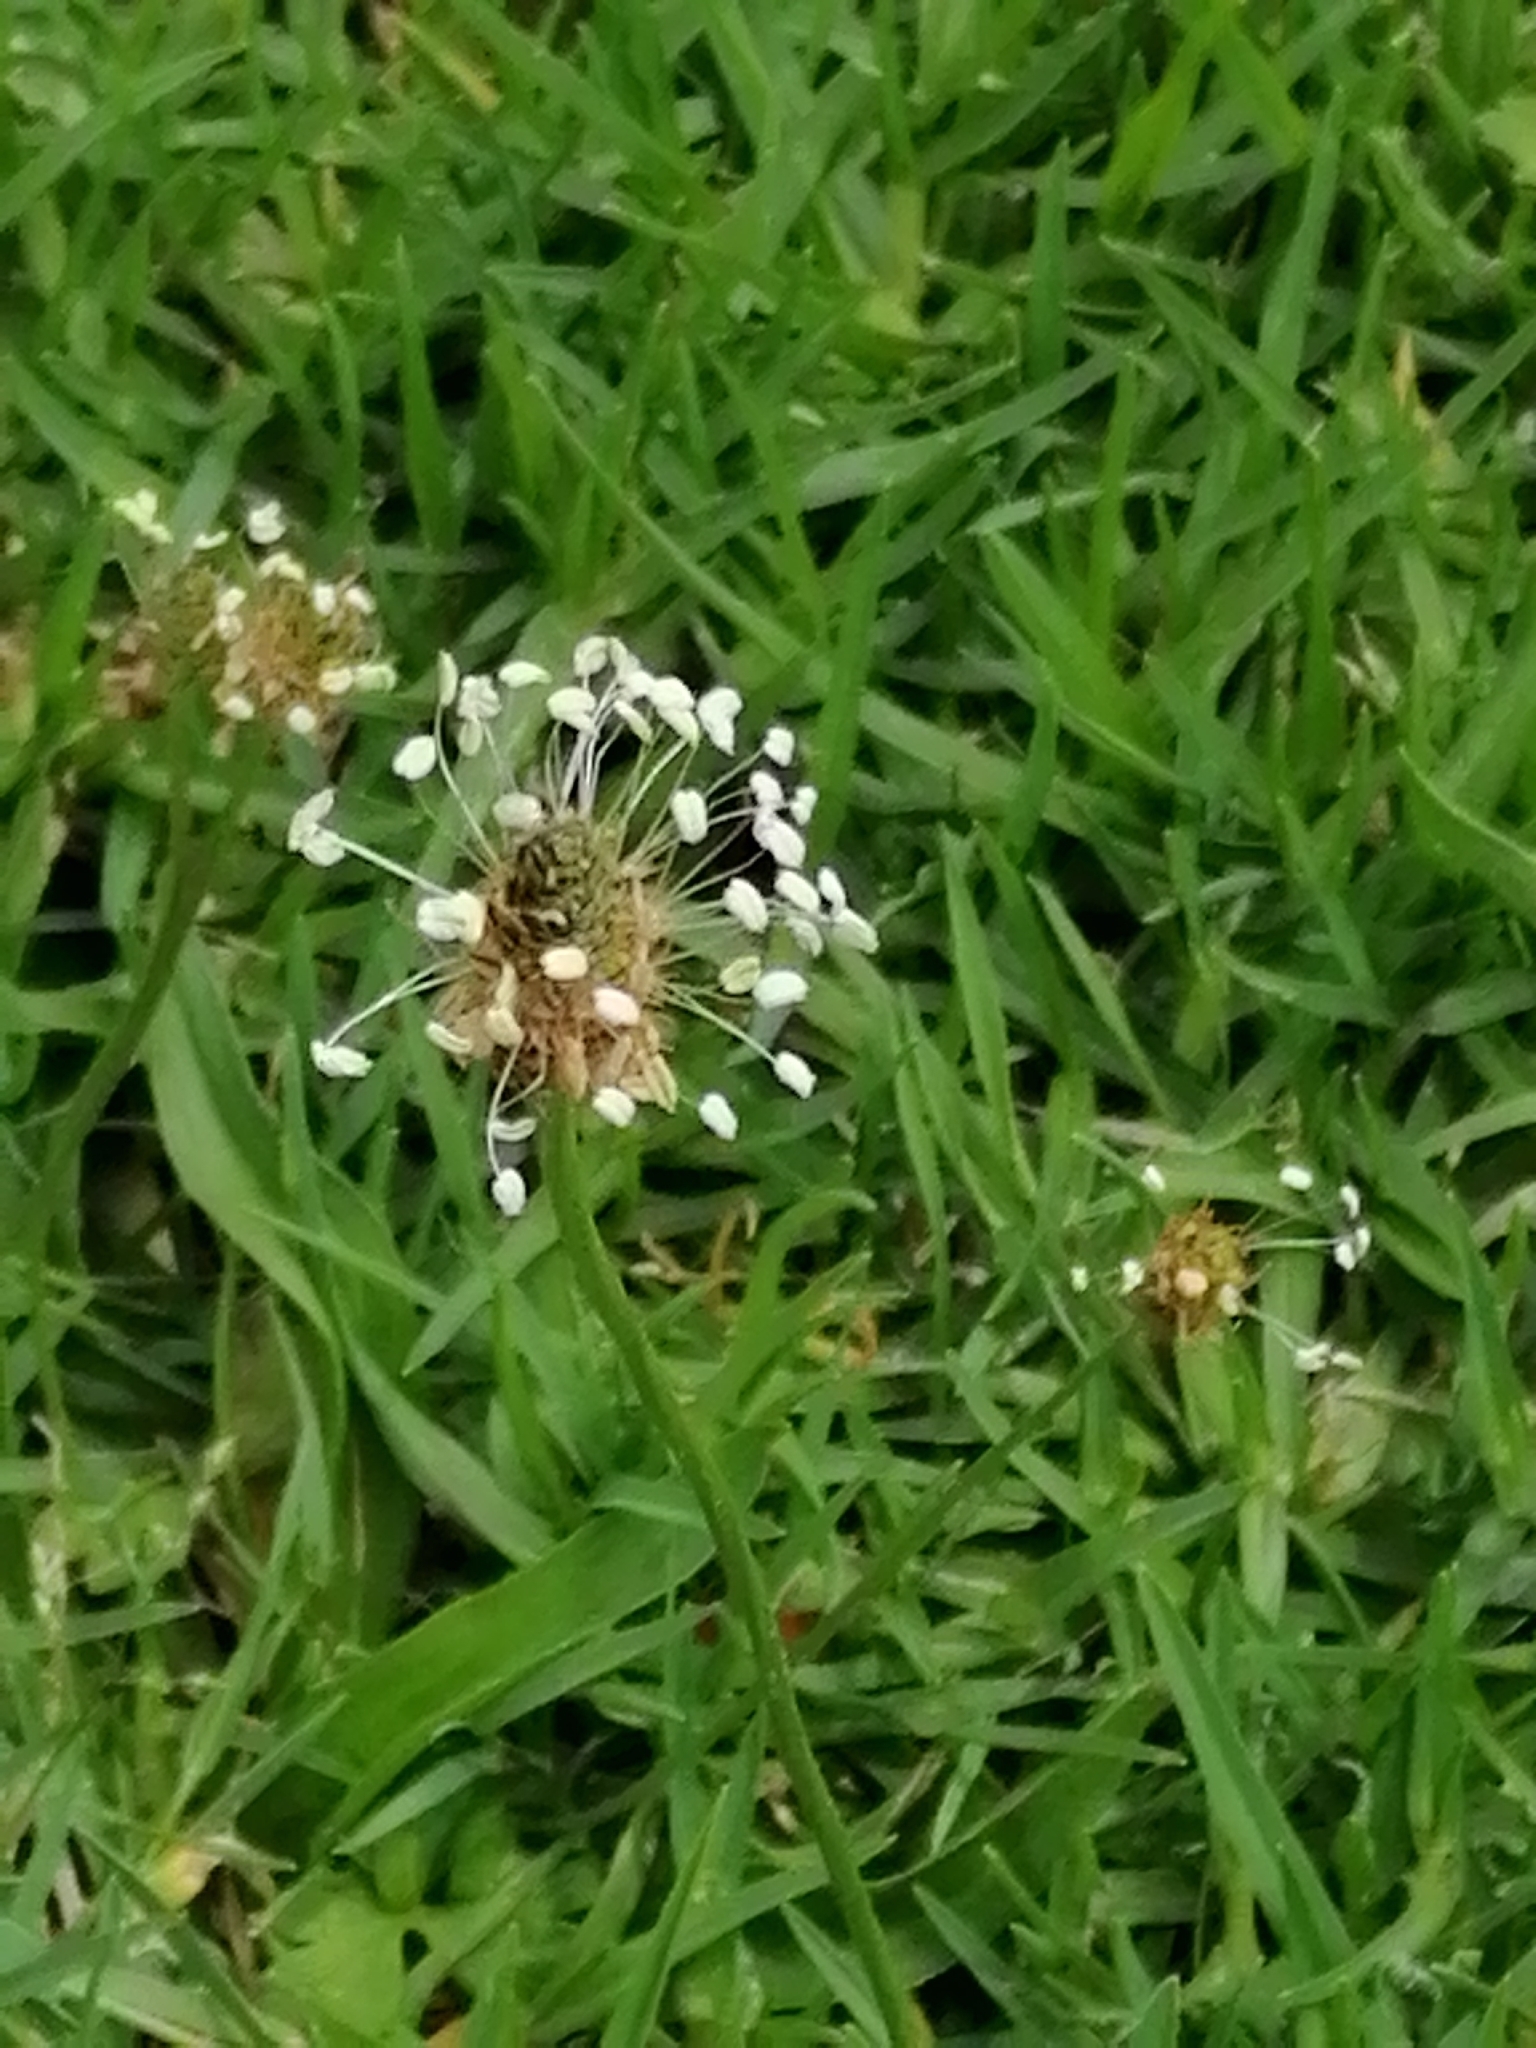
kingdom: Plantae
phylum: Tracheophyta
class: Magnoliopsida
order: Lamiales
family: Plantaginaceae
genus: Plantago
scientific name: Plantago lanceolata
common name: Ribwort plantain
